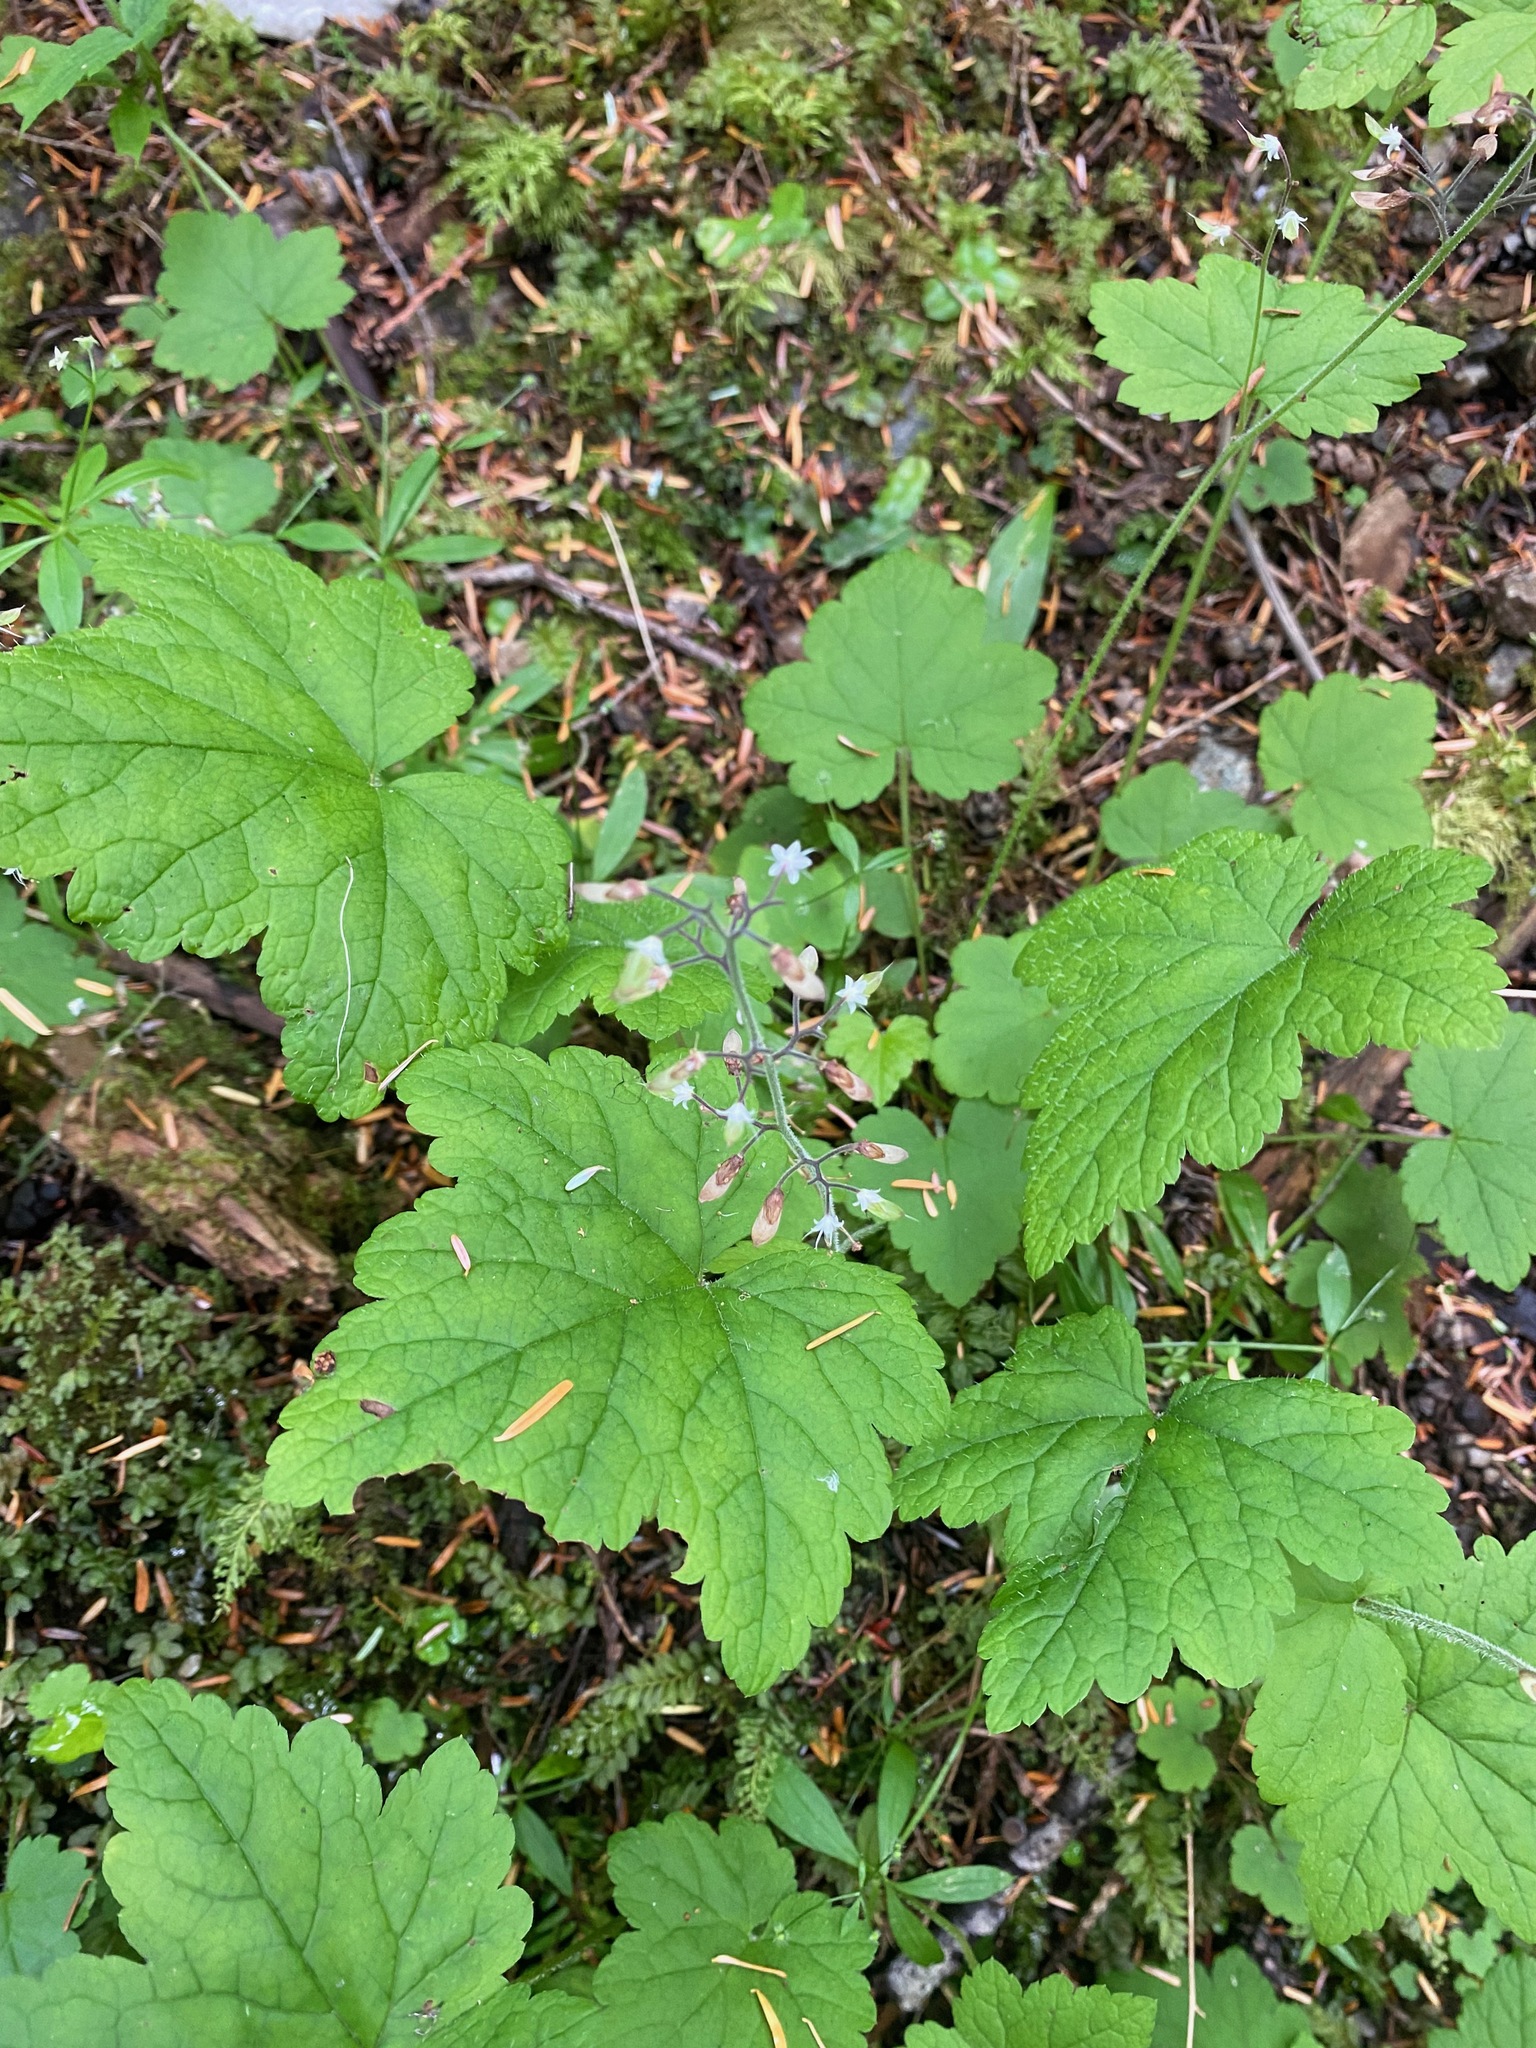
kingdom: Plantae
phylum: Tracheophyta
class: Magnoliopsida
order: Saxifragales
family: Saxifragaceae
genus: Tiarella
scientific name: Tiarella trifoliata
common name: Sugar-scoop
